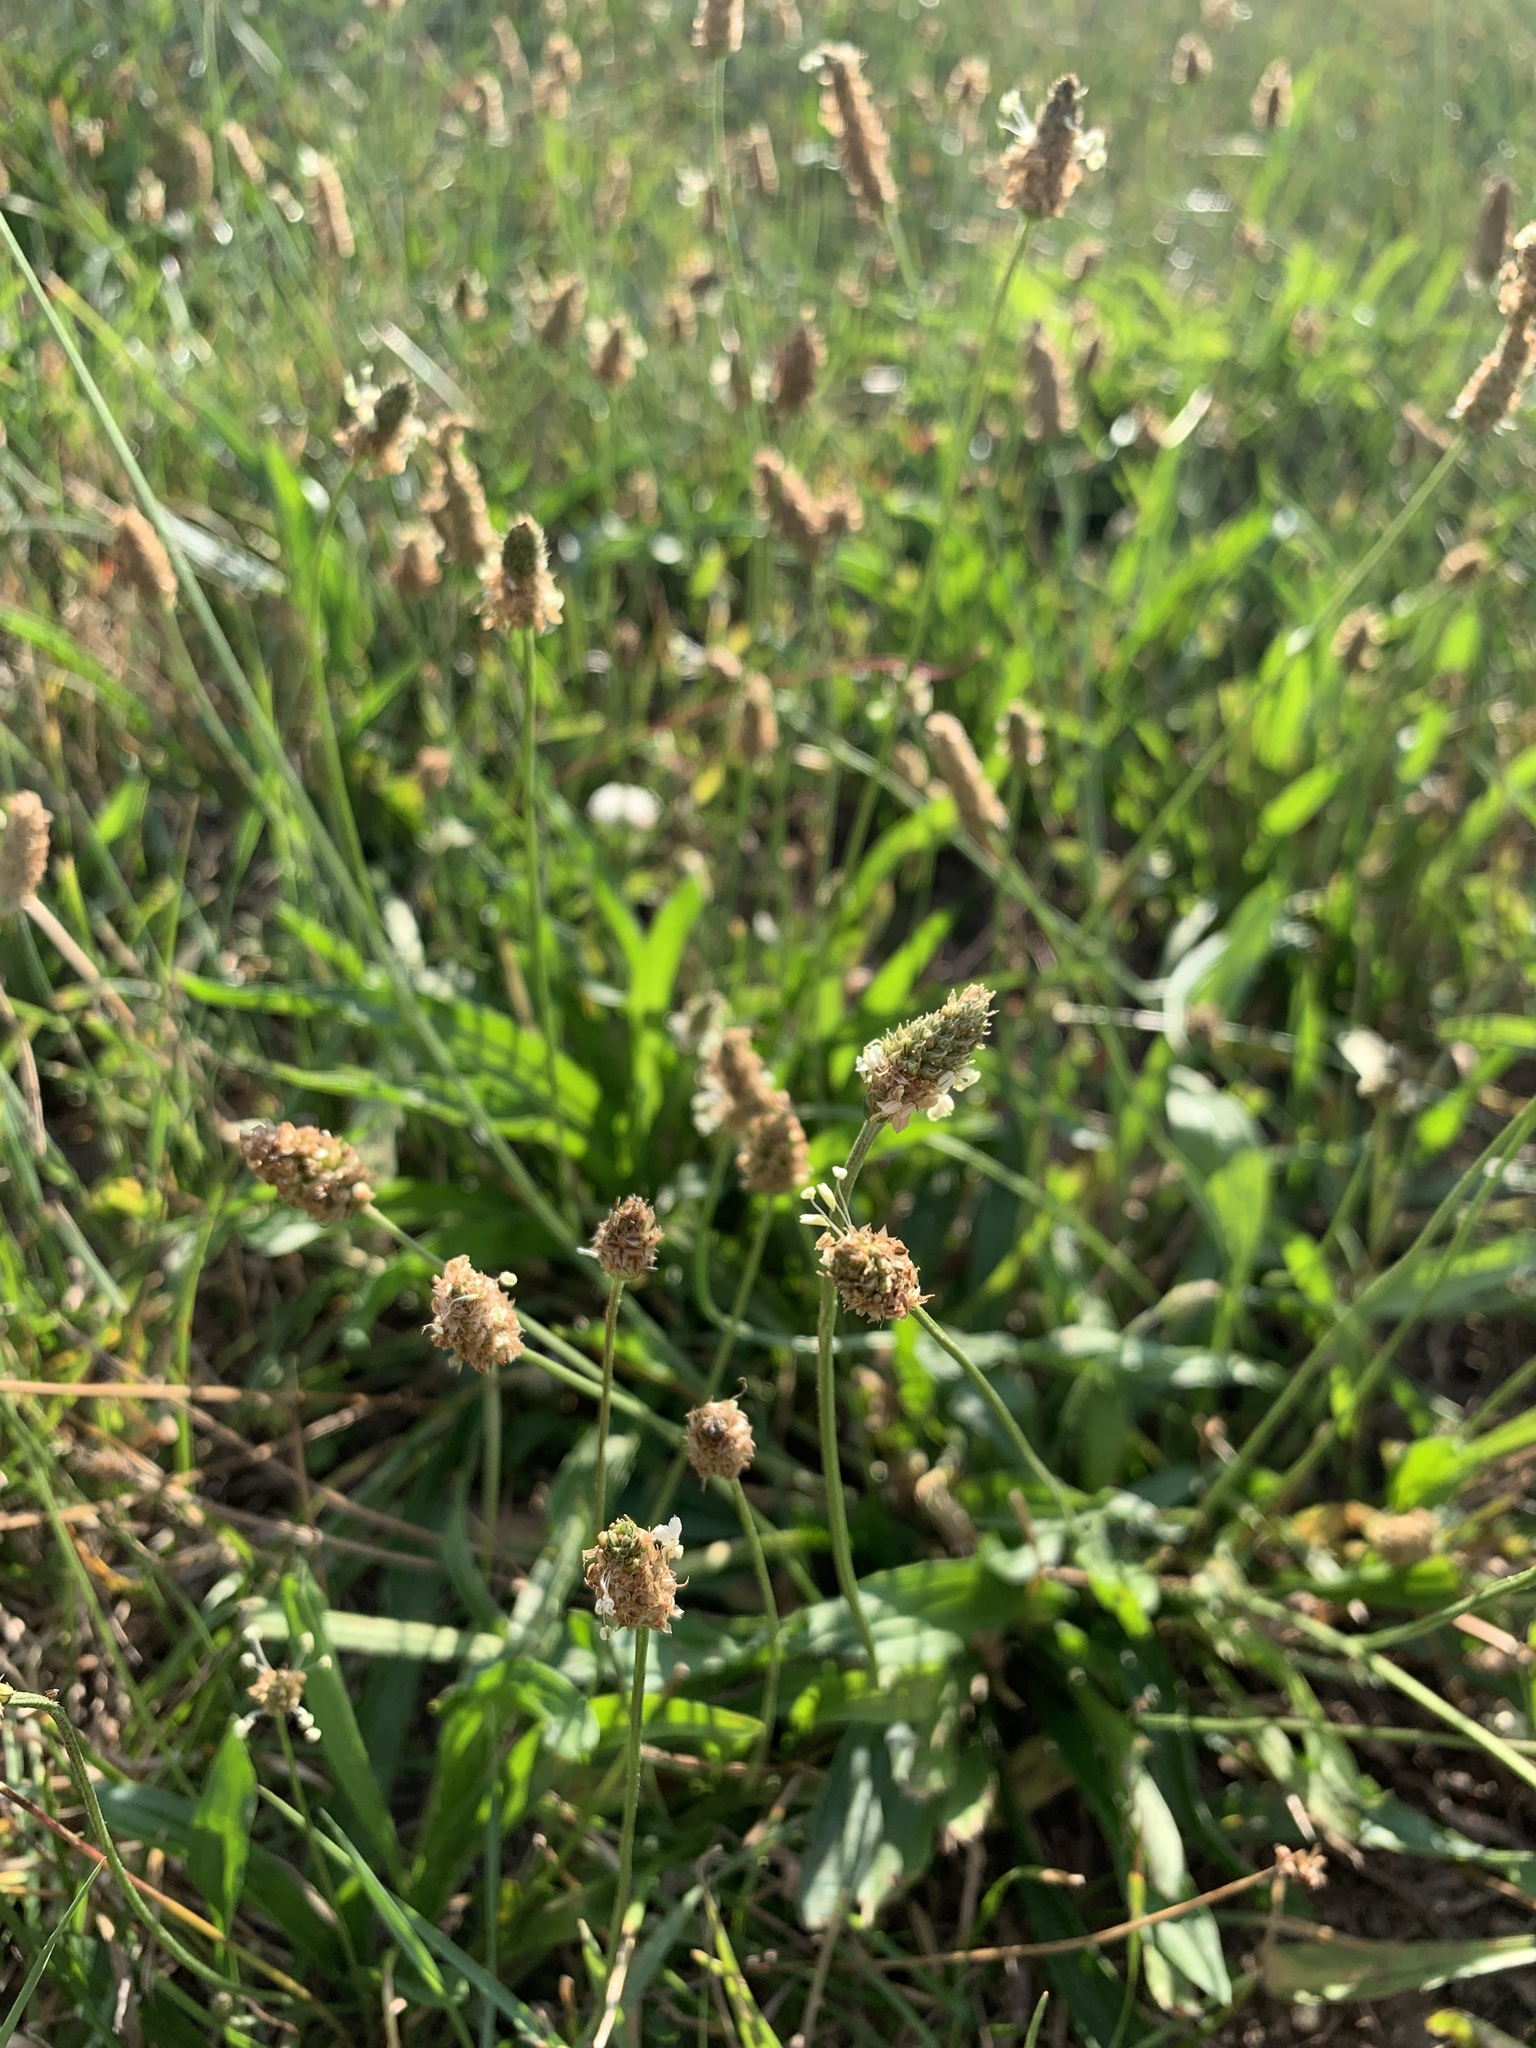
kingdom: Plantae
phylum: Tracheophyta
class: Magnoliopsida
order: Lamiales
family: Plantaginaceae
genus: Plantago
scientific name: Plantago lanceolata
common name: Ribwort plantain
